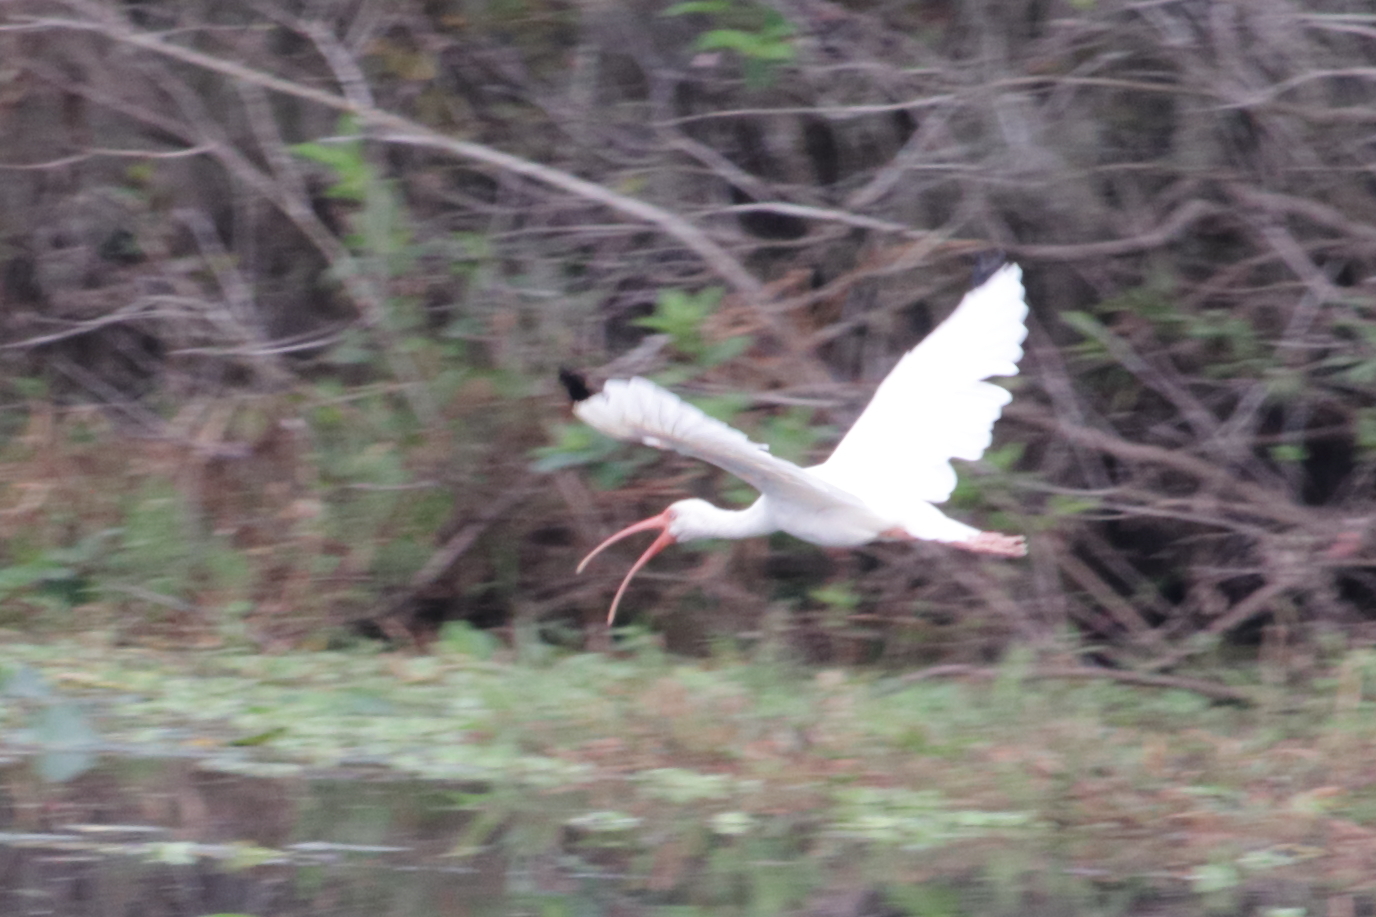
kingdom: Animalia
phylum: Chordata
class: Aves
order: Pelecaniformes
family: Threskiornithidae
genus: Eudocimus
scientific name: Eudocimus albus
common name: White ibis
